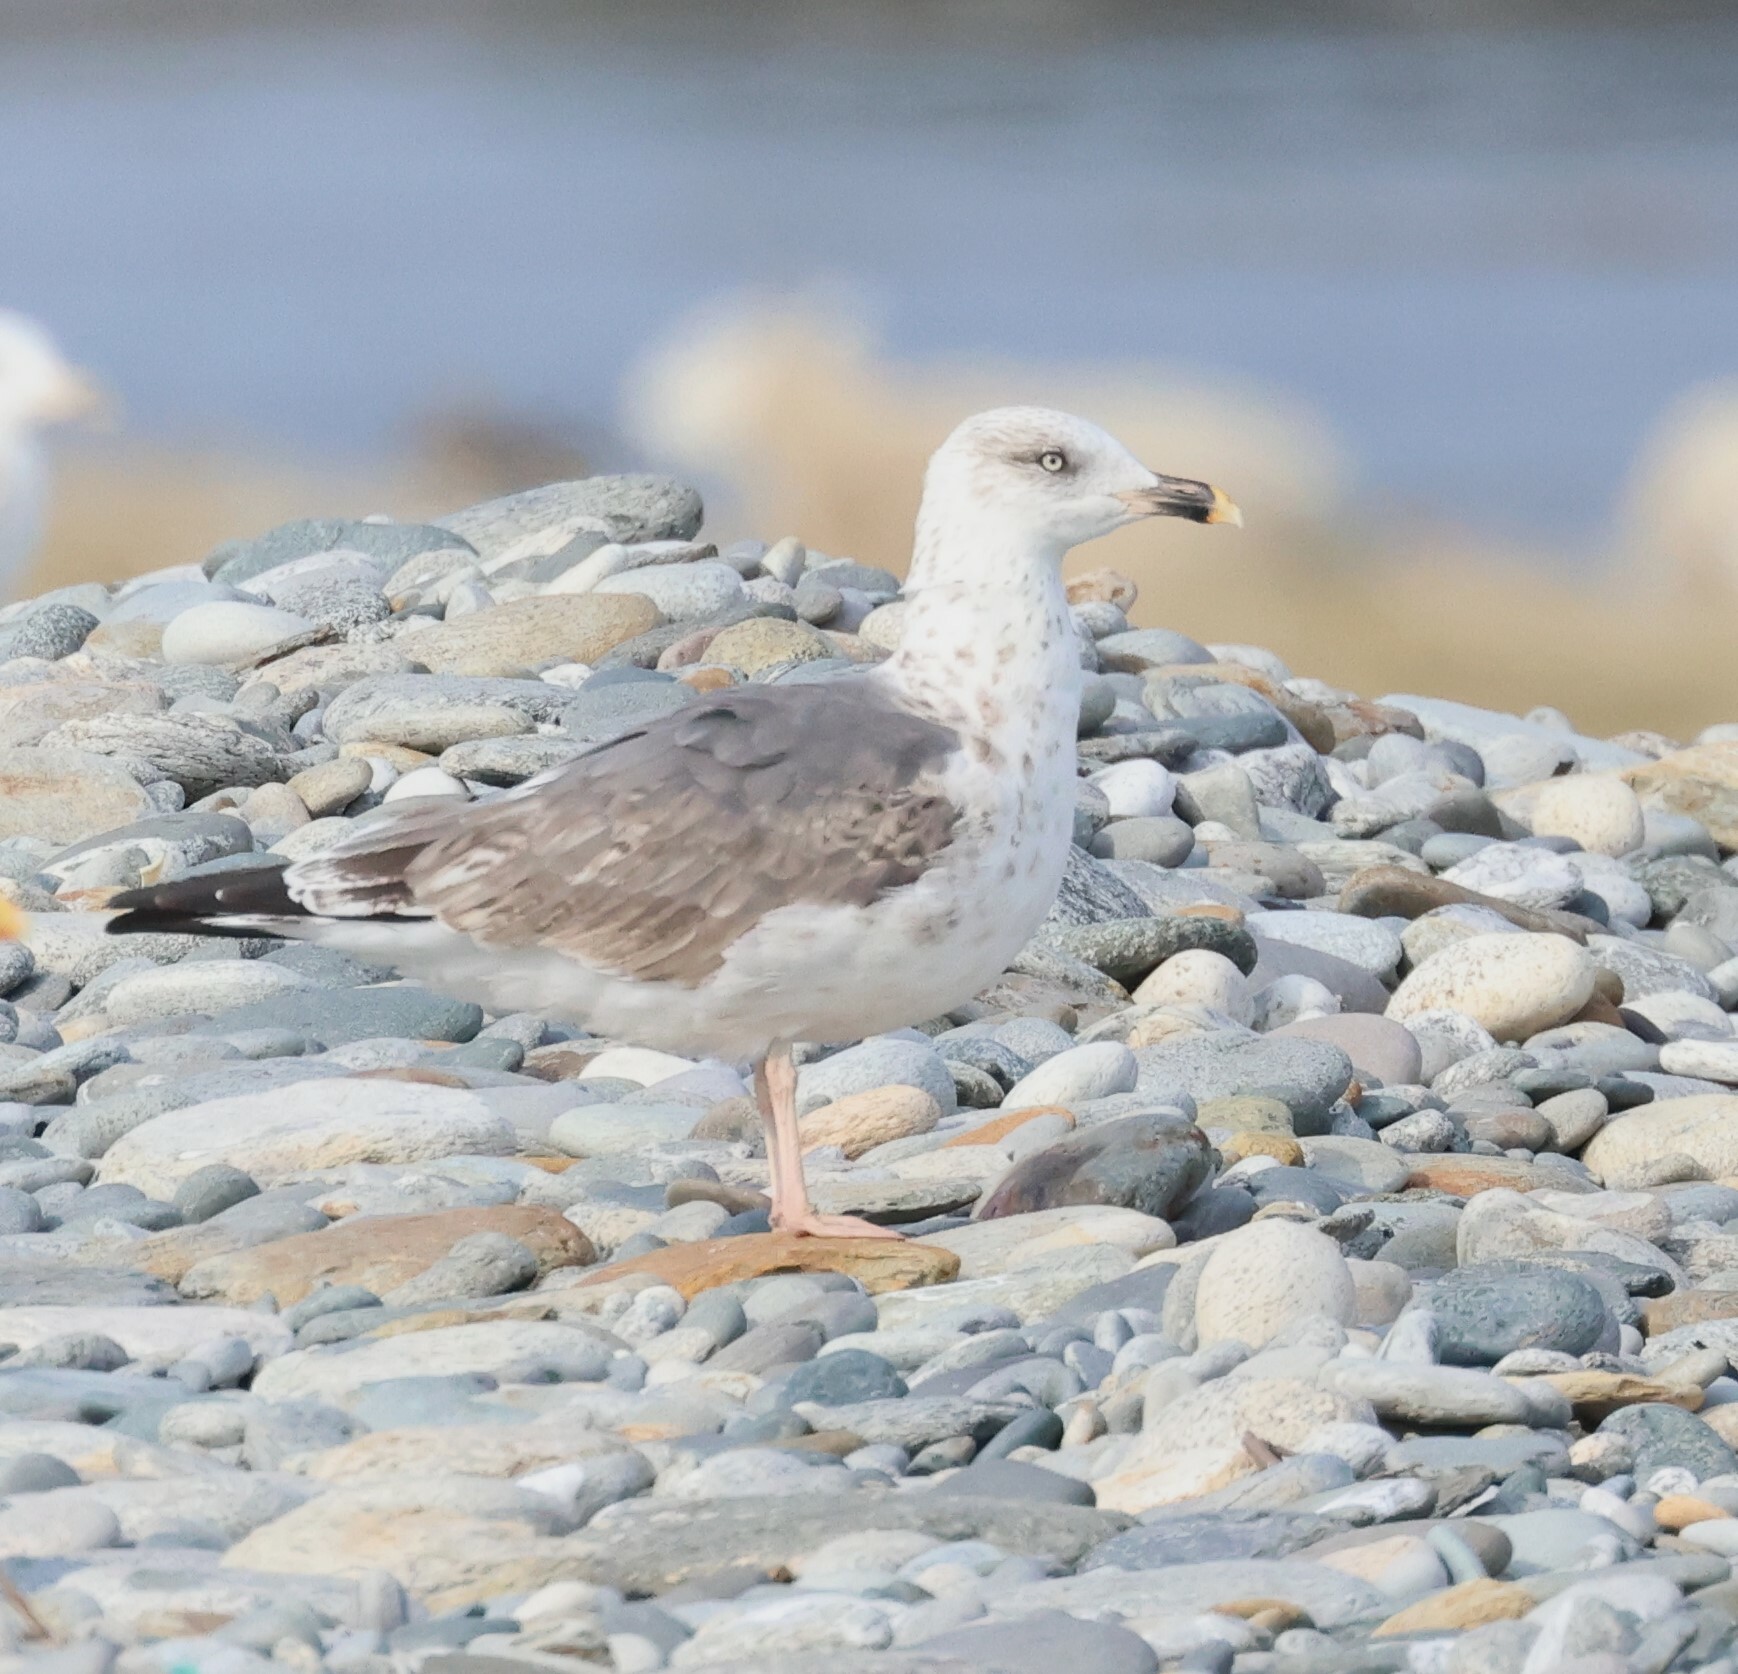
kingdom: Animalia
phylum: Chordata
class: Aves
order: Charadriiformes
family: Laridae
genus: Larus
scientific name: Larus fuscus
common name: Lesser black-backed gull
